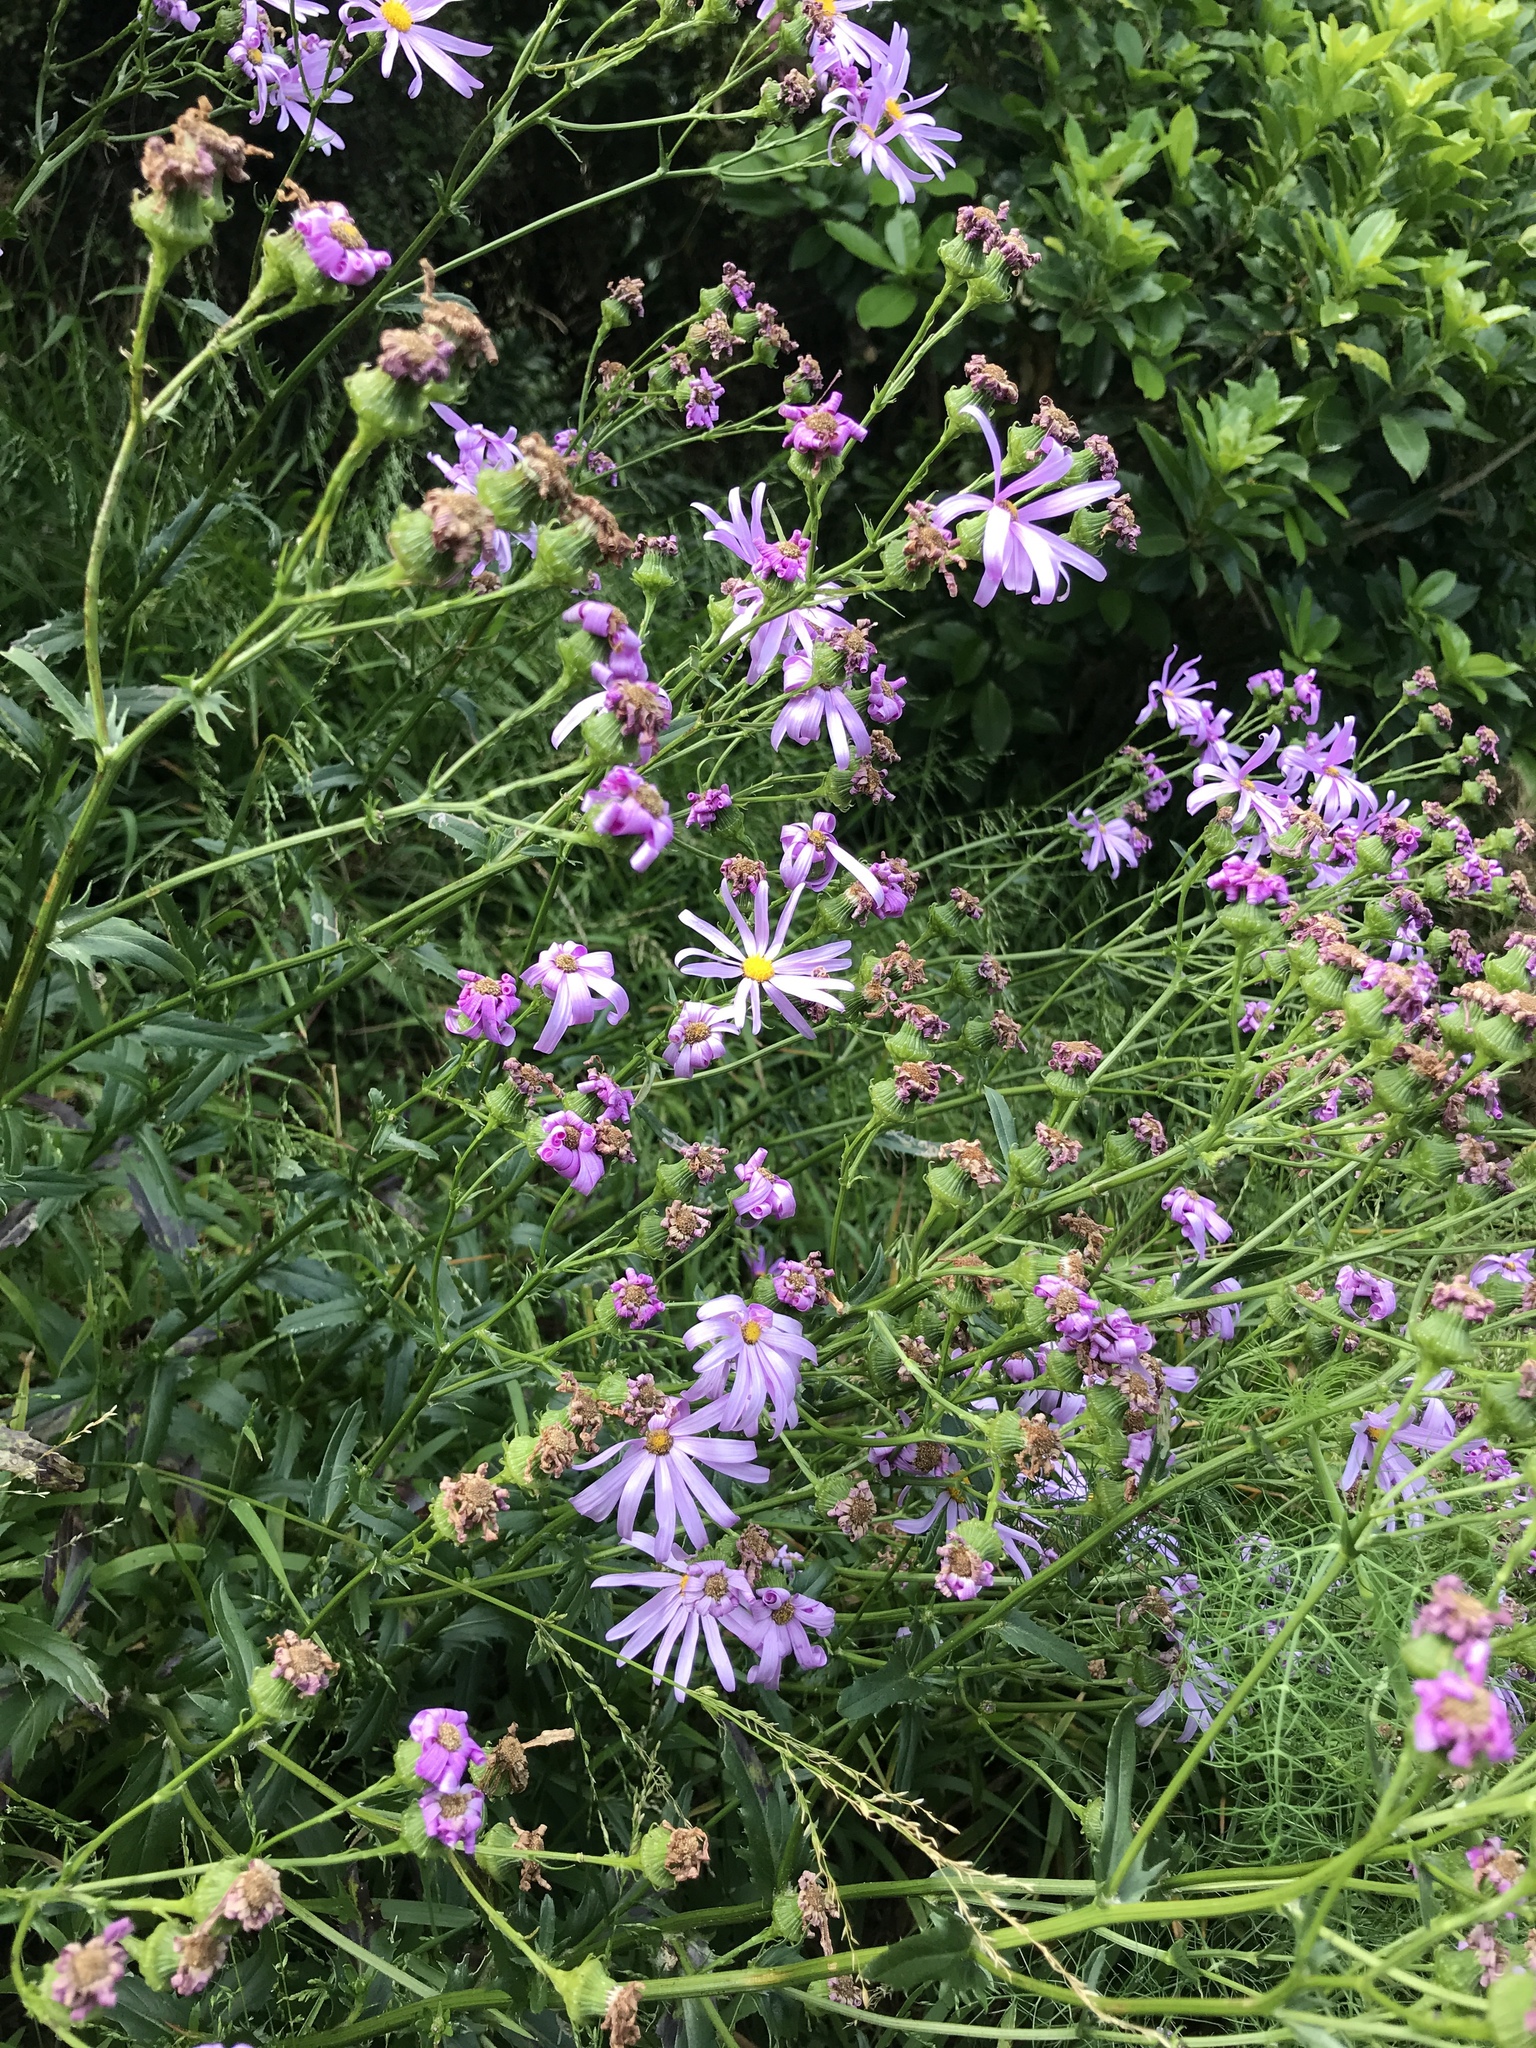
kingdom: Plantae
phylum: Tracheophyta
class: Magnoliopsida
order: Asterales
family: Asteraceae
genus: Senecio
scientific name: Senecio glastifolius
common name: Woad-leaved ragwort
